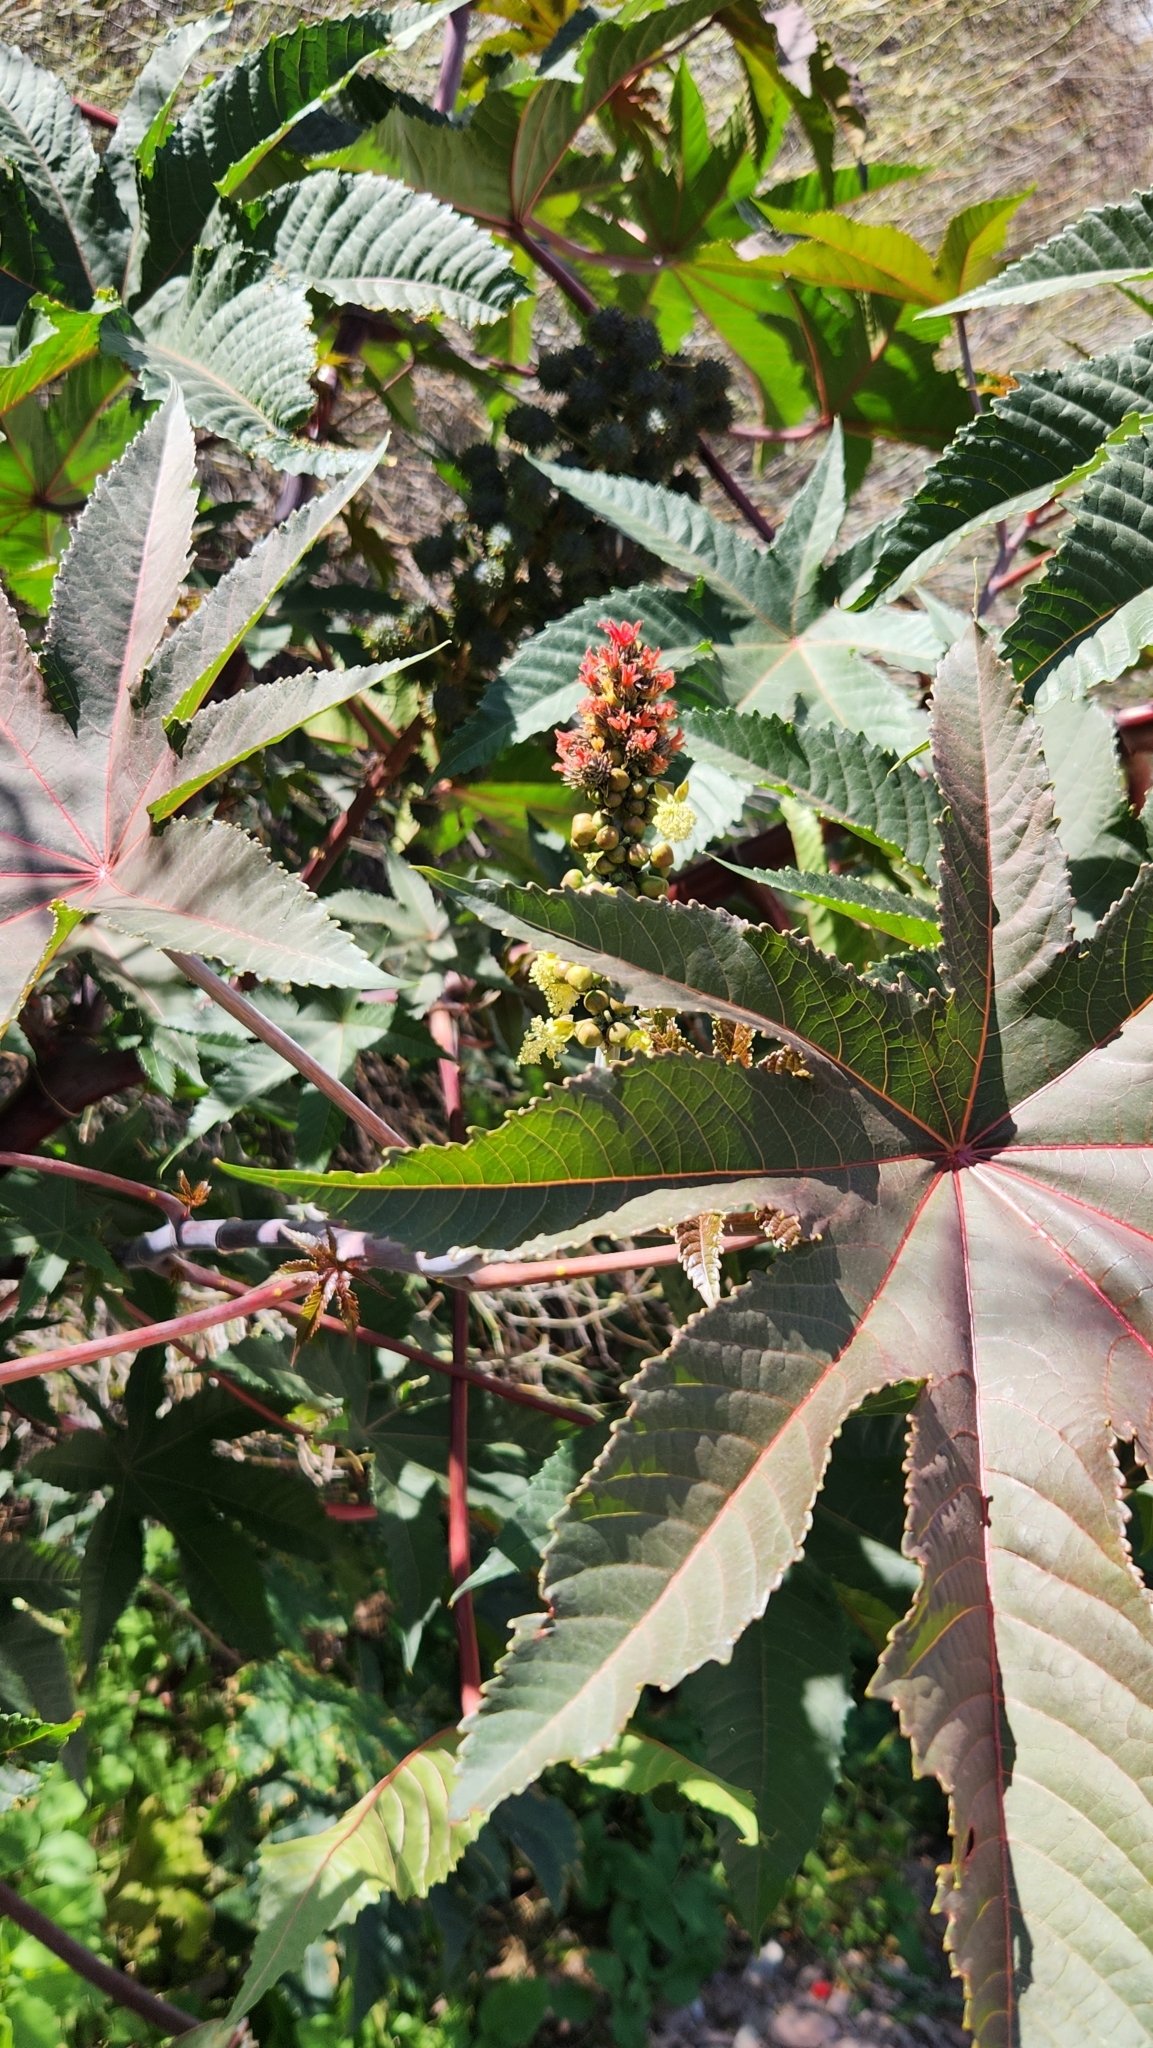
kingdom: Plantae
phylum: Tracheophyta
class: Magnoliopsida
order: Malpighiales
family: Euphorbiaceae
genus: Ricinus
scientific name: Ricinus communis
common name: Castor-oil-plant
